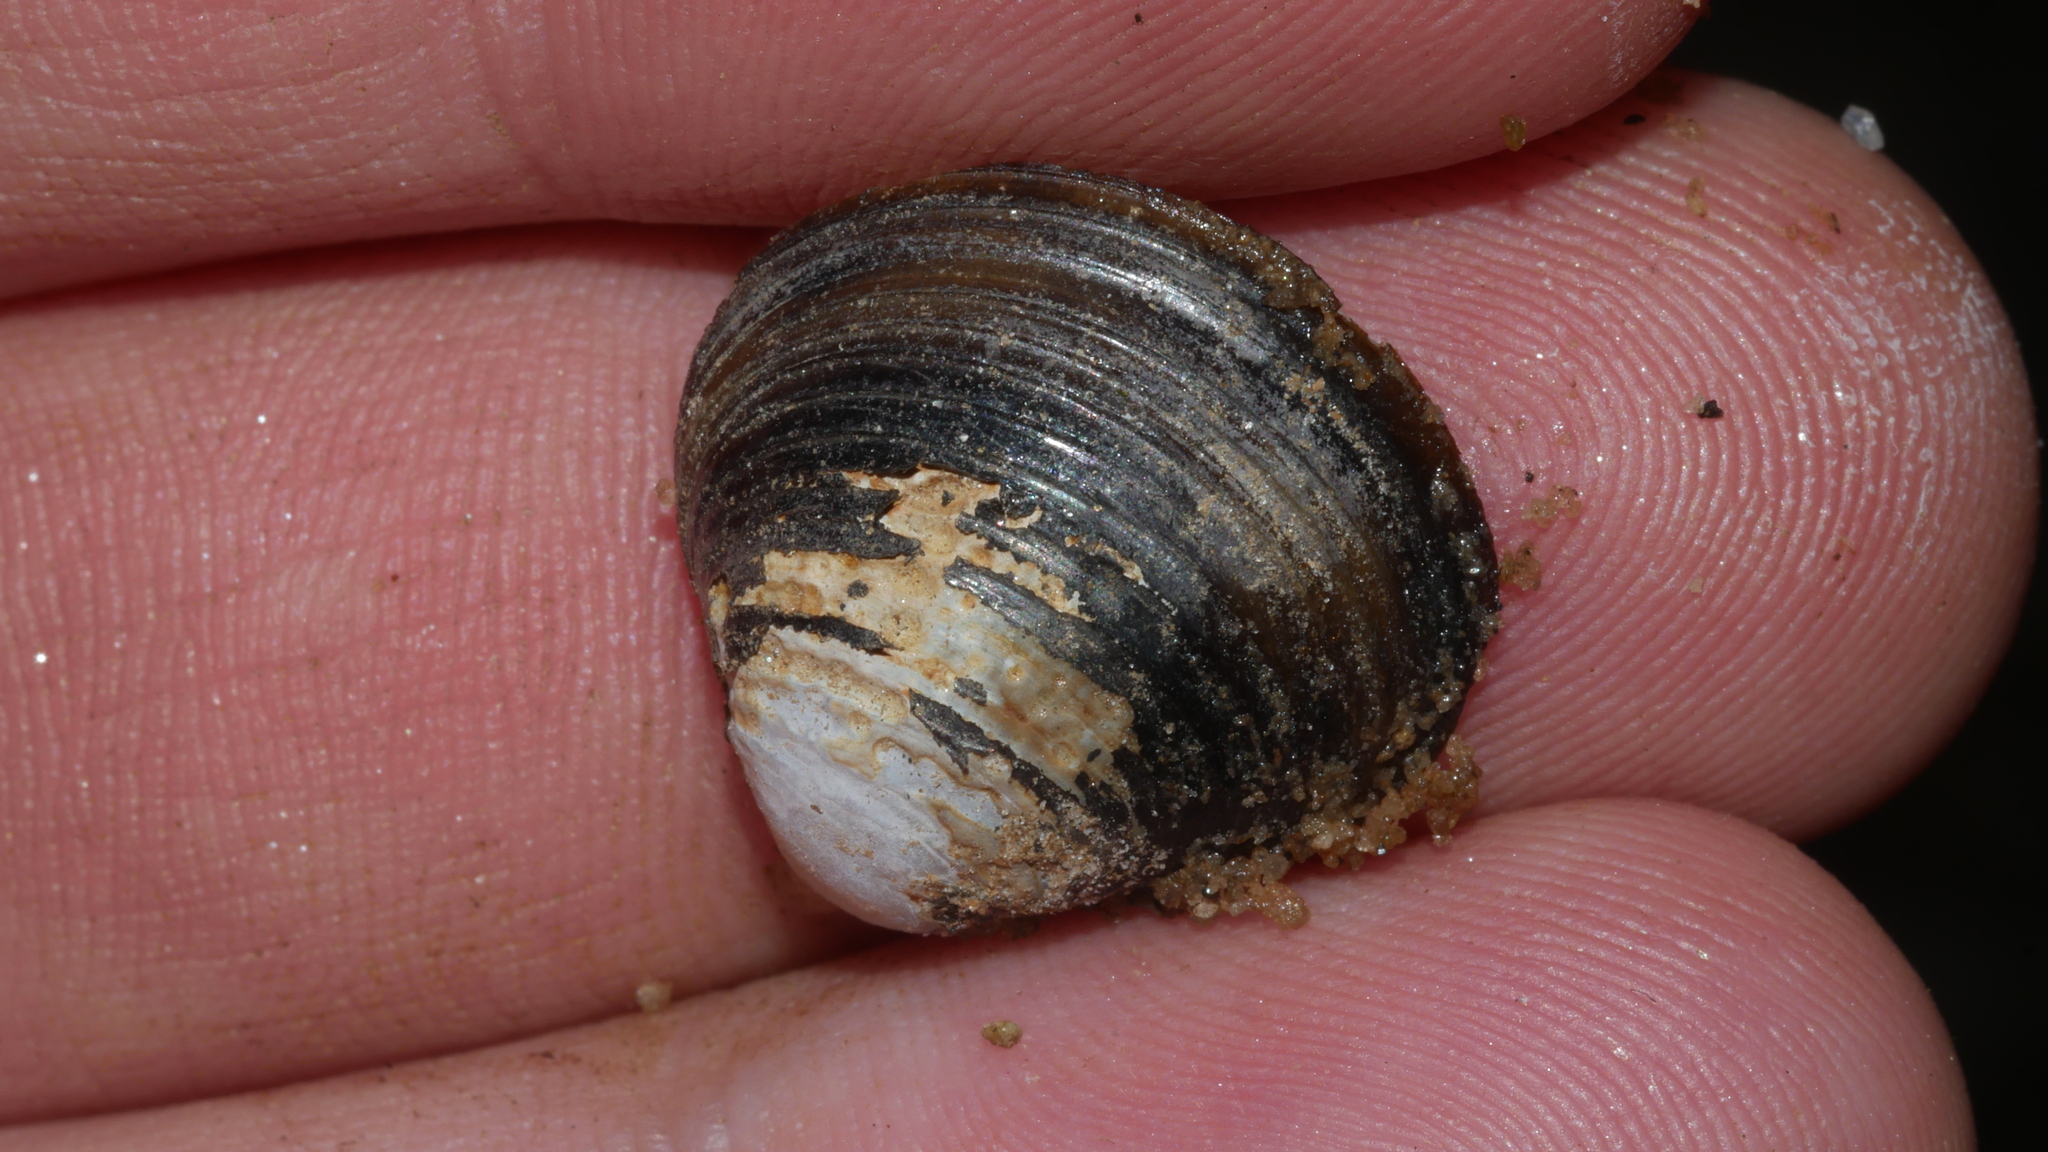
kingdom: Animalia
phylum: Mollusca
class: Bivalvia
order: Venerida
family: Cyrenidae
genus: Corbicula
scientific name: Corbicula fluminea
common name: Asian clam
